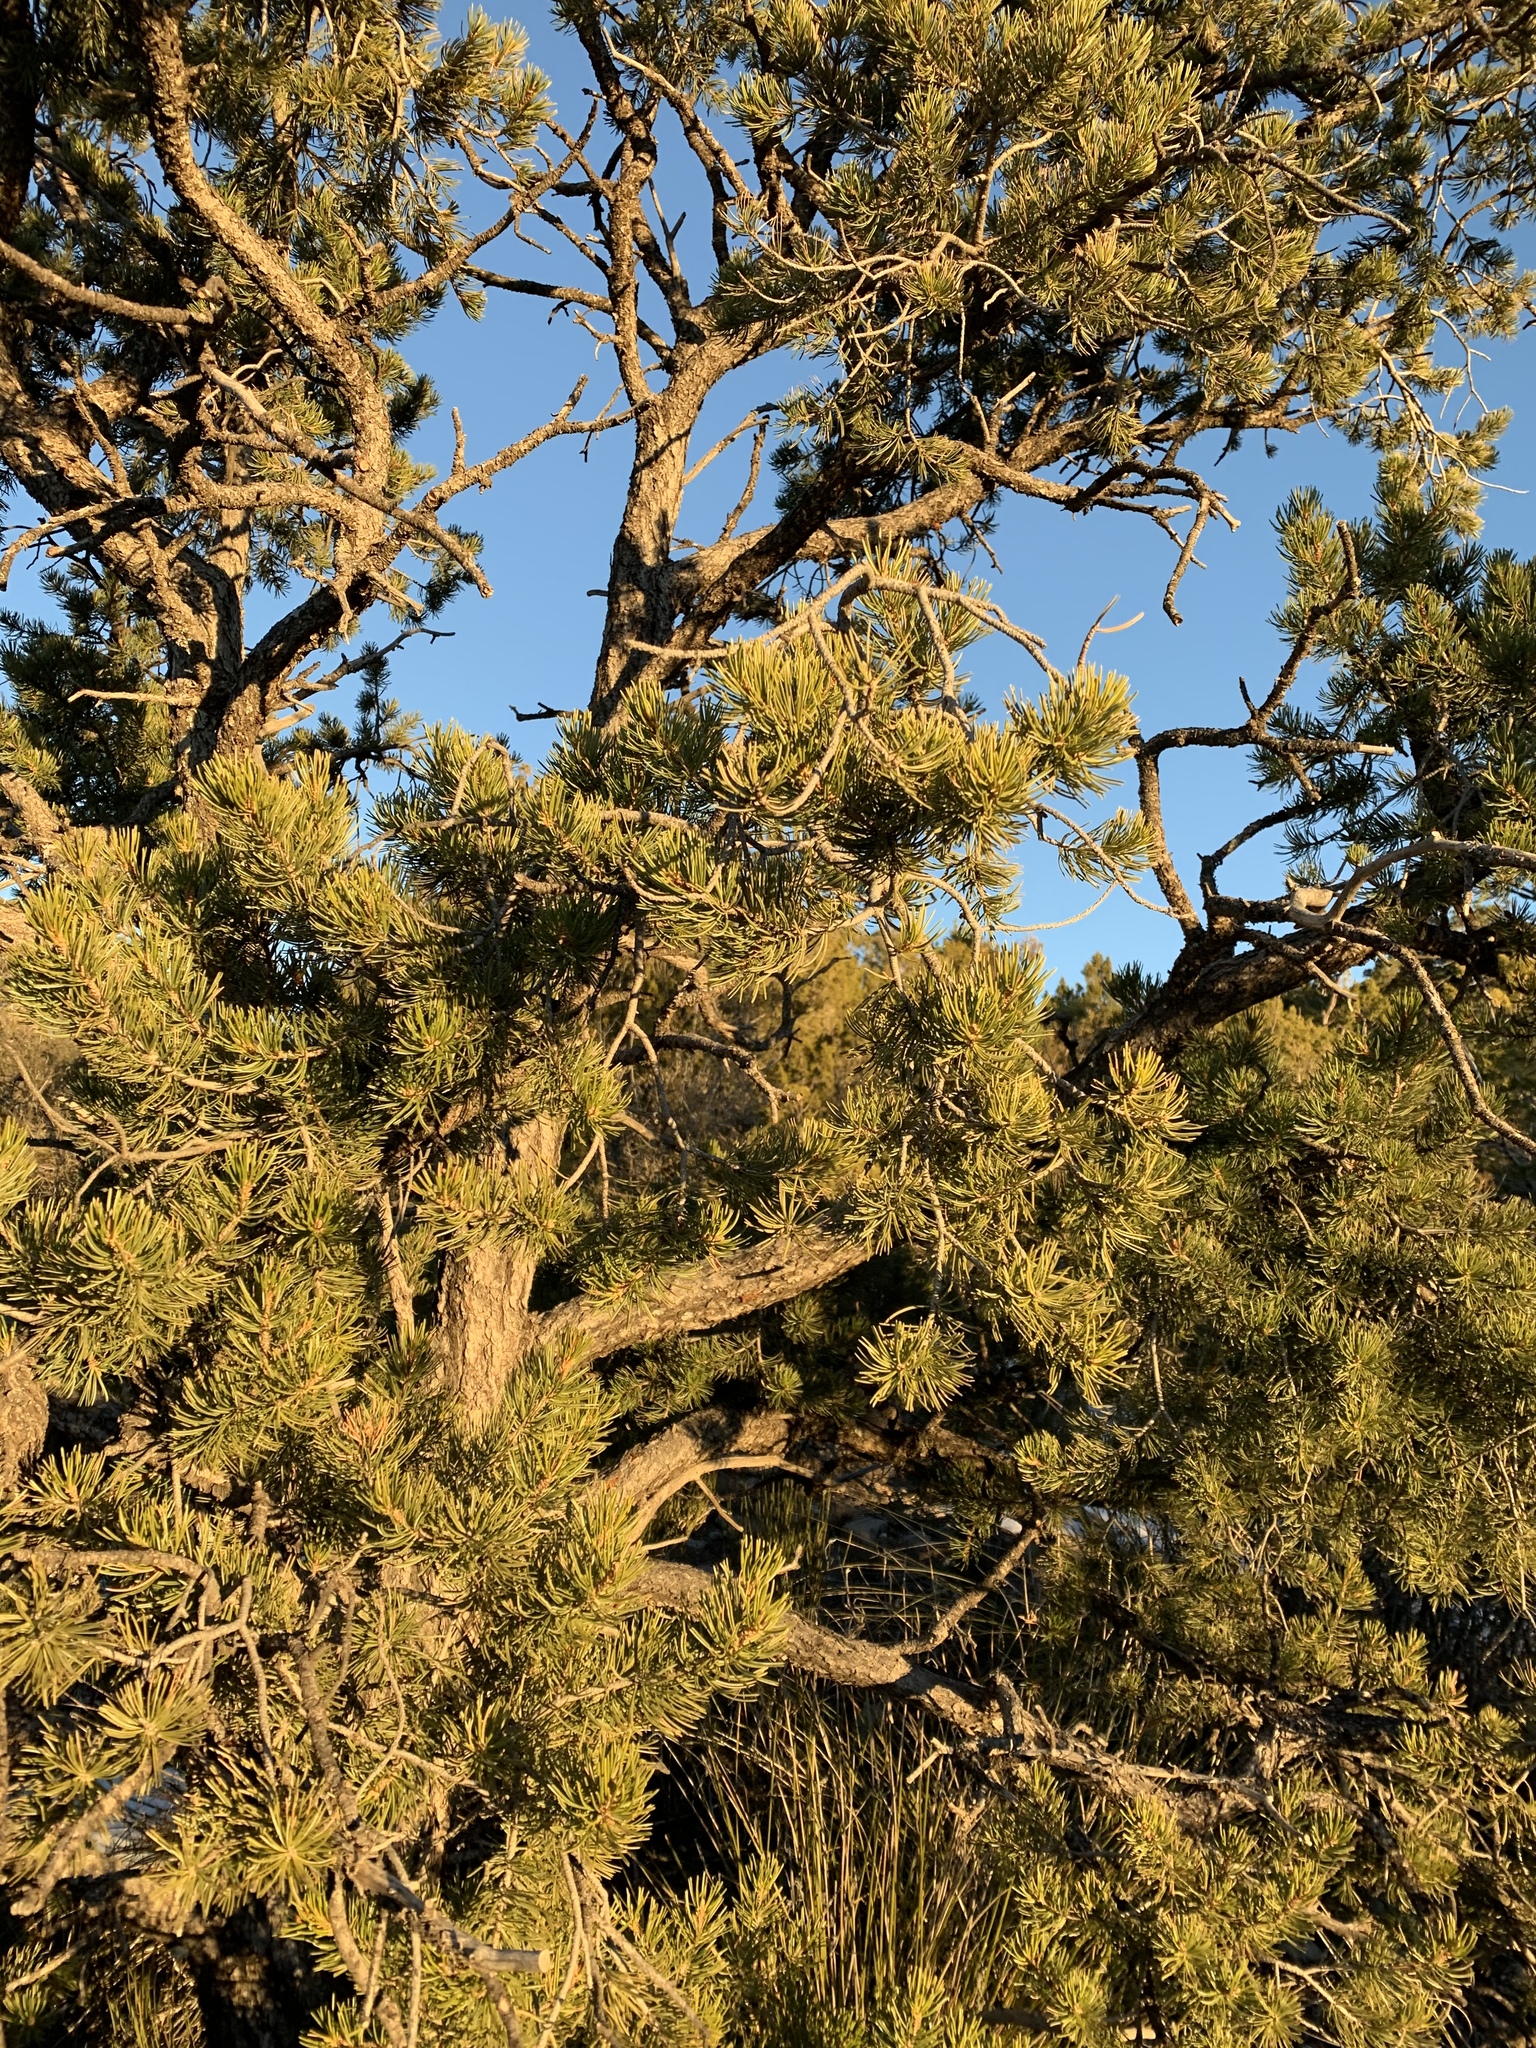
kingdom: Plantae
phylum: Tracheophyta
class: Pinopsida
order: Pinales
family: Pinaceae
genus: Pinus
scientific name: Pinus edulis
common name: Colorado pinyon
